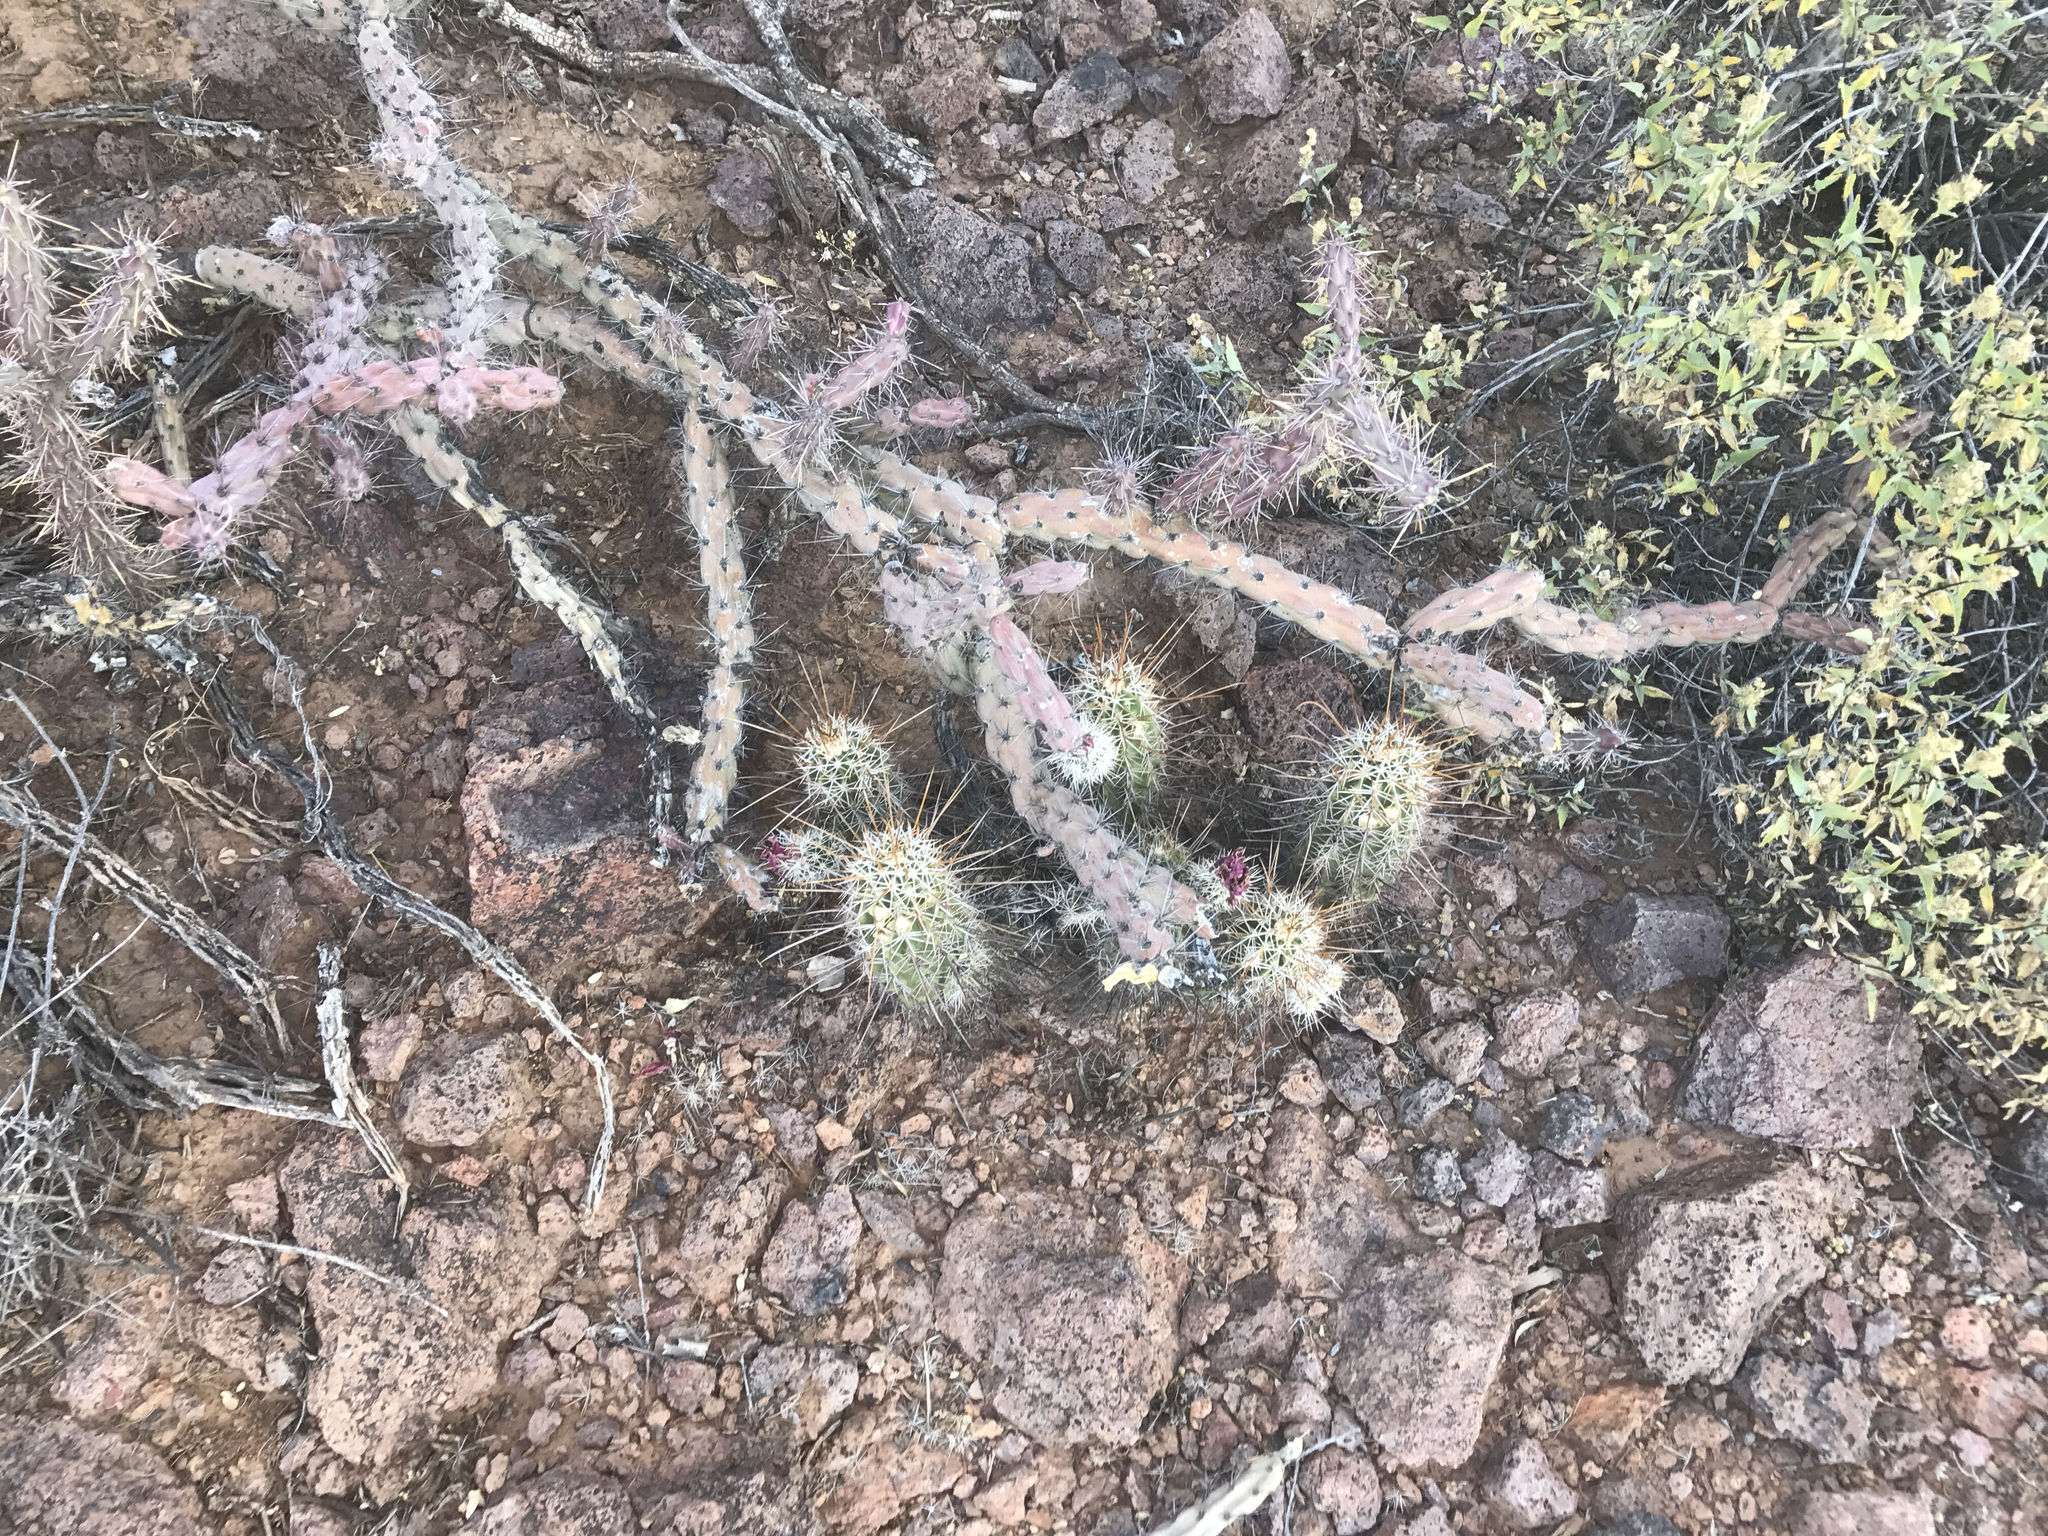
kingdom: Plantae
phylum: Tracheophyta
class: Magnoliopsida
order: Caryophyllales
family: Cactaceae
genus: Echinocereus
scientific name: Echinocereus fasciculatus
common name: Bundle hedgehog
